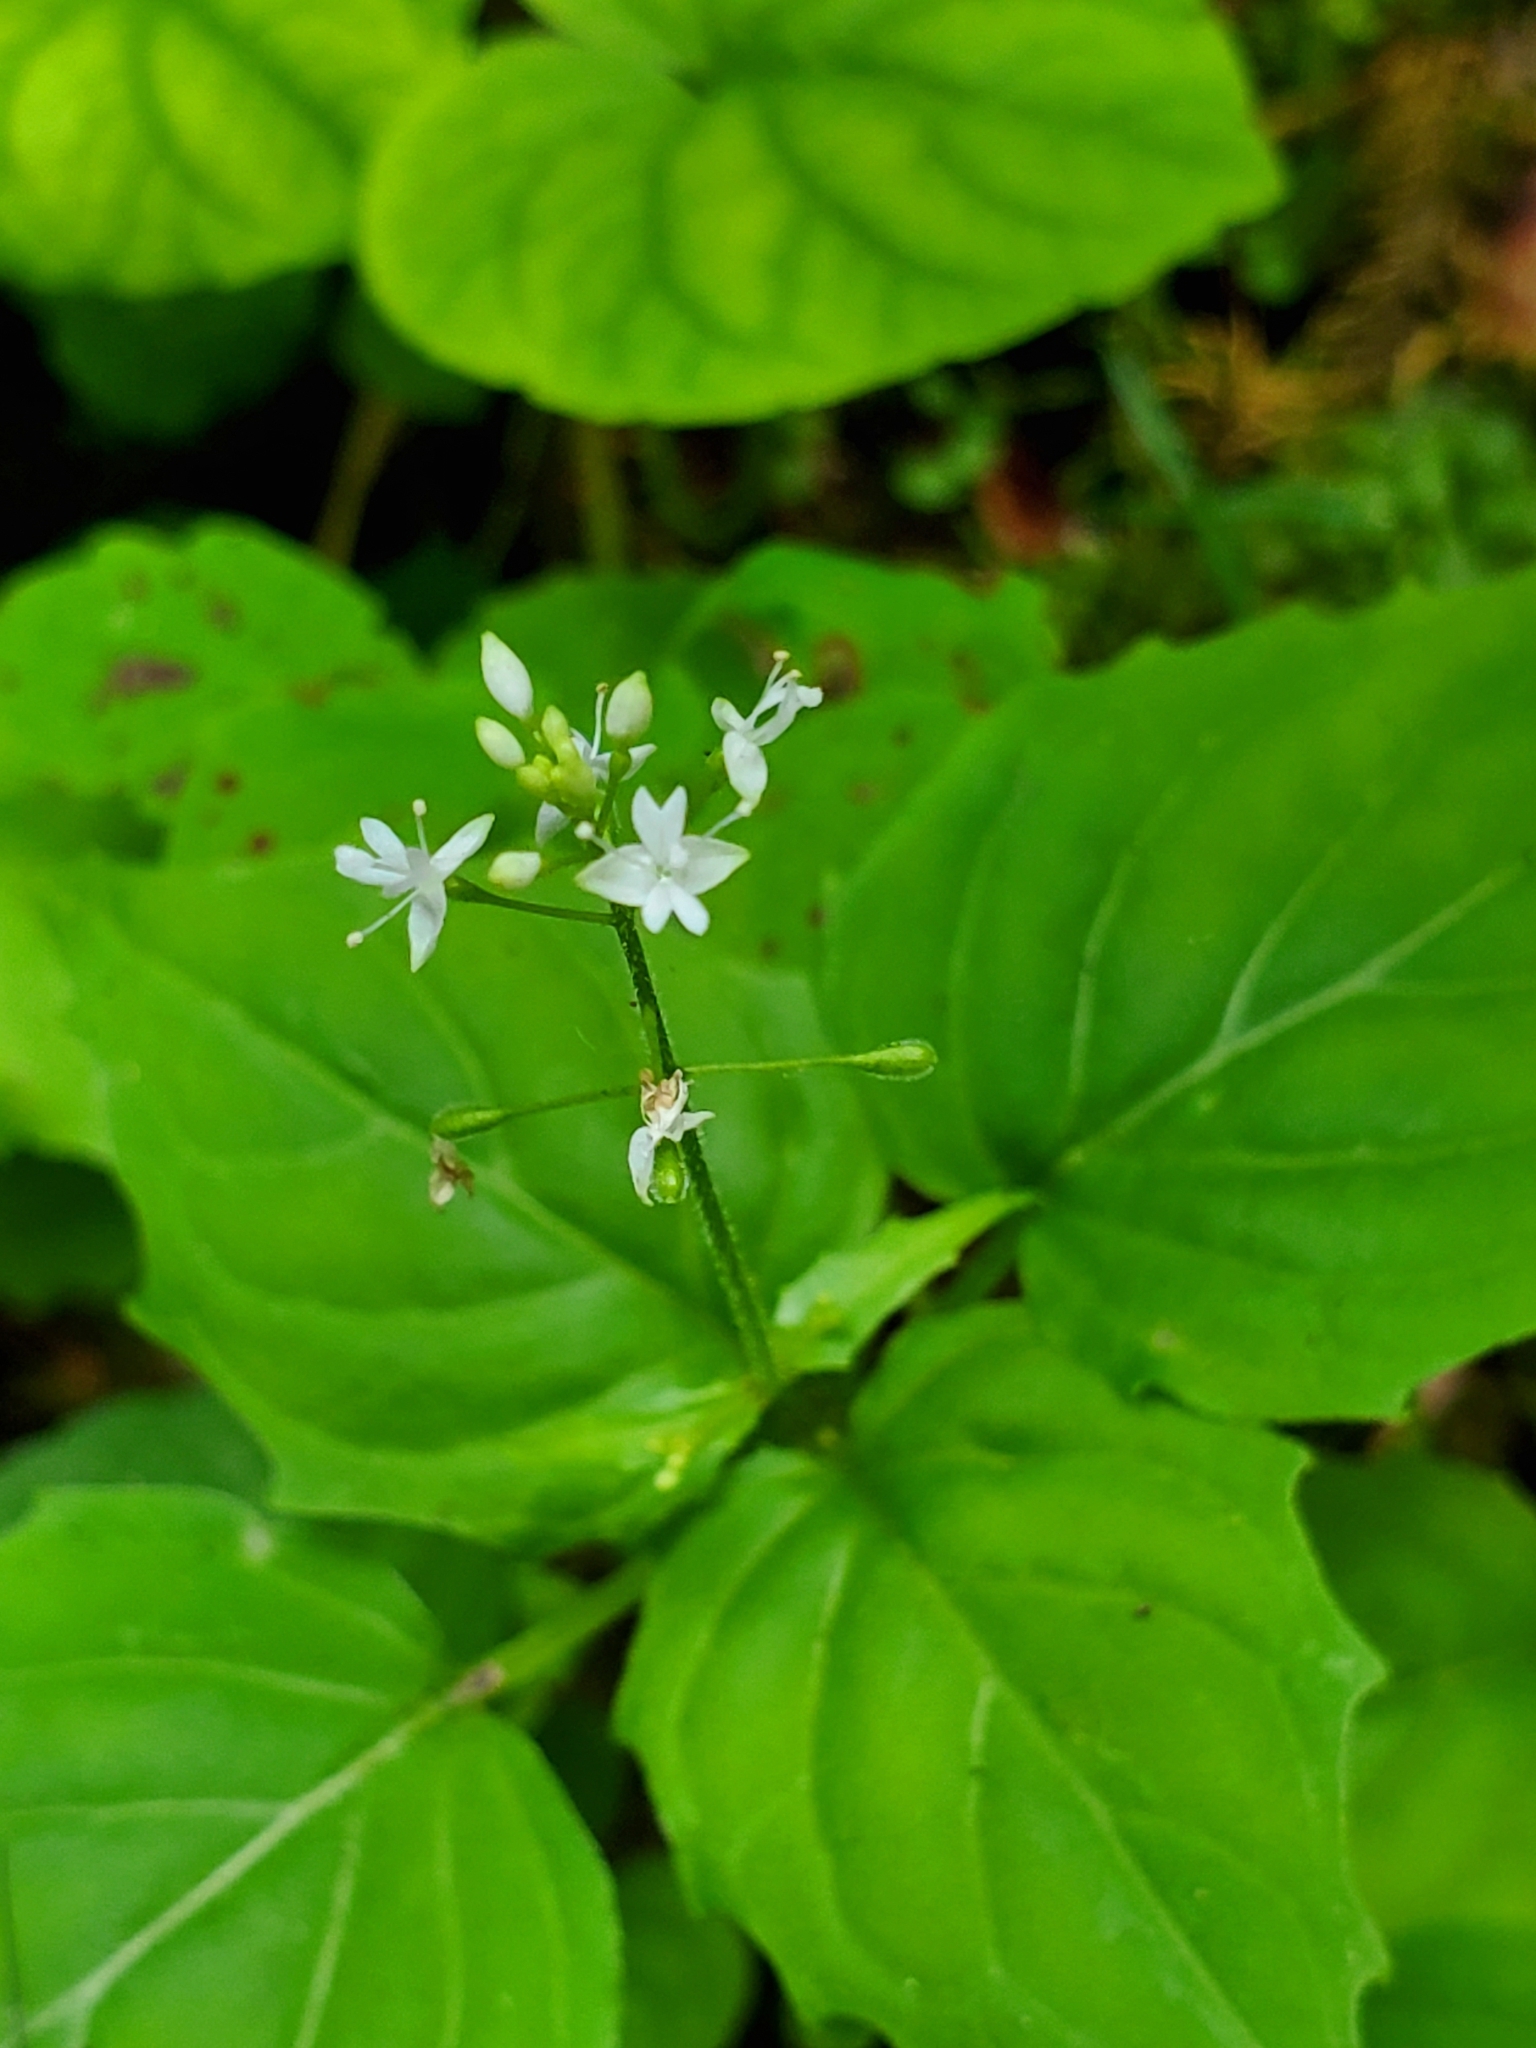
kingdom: Plantae
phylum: Tracheophyta
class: Magnoliopsida
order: Myrtales
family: Onagraceae
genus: Circaea
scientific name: Circaea alpina
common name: Alpine enchanter's-nightshade
